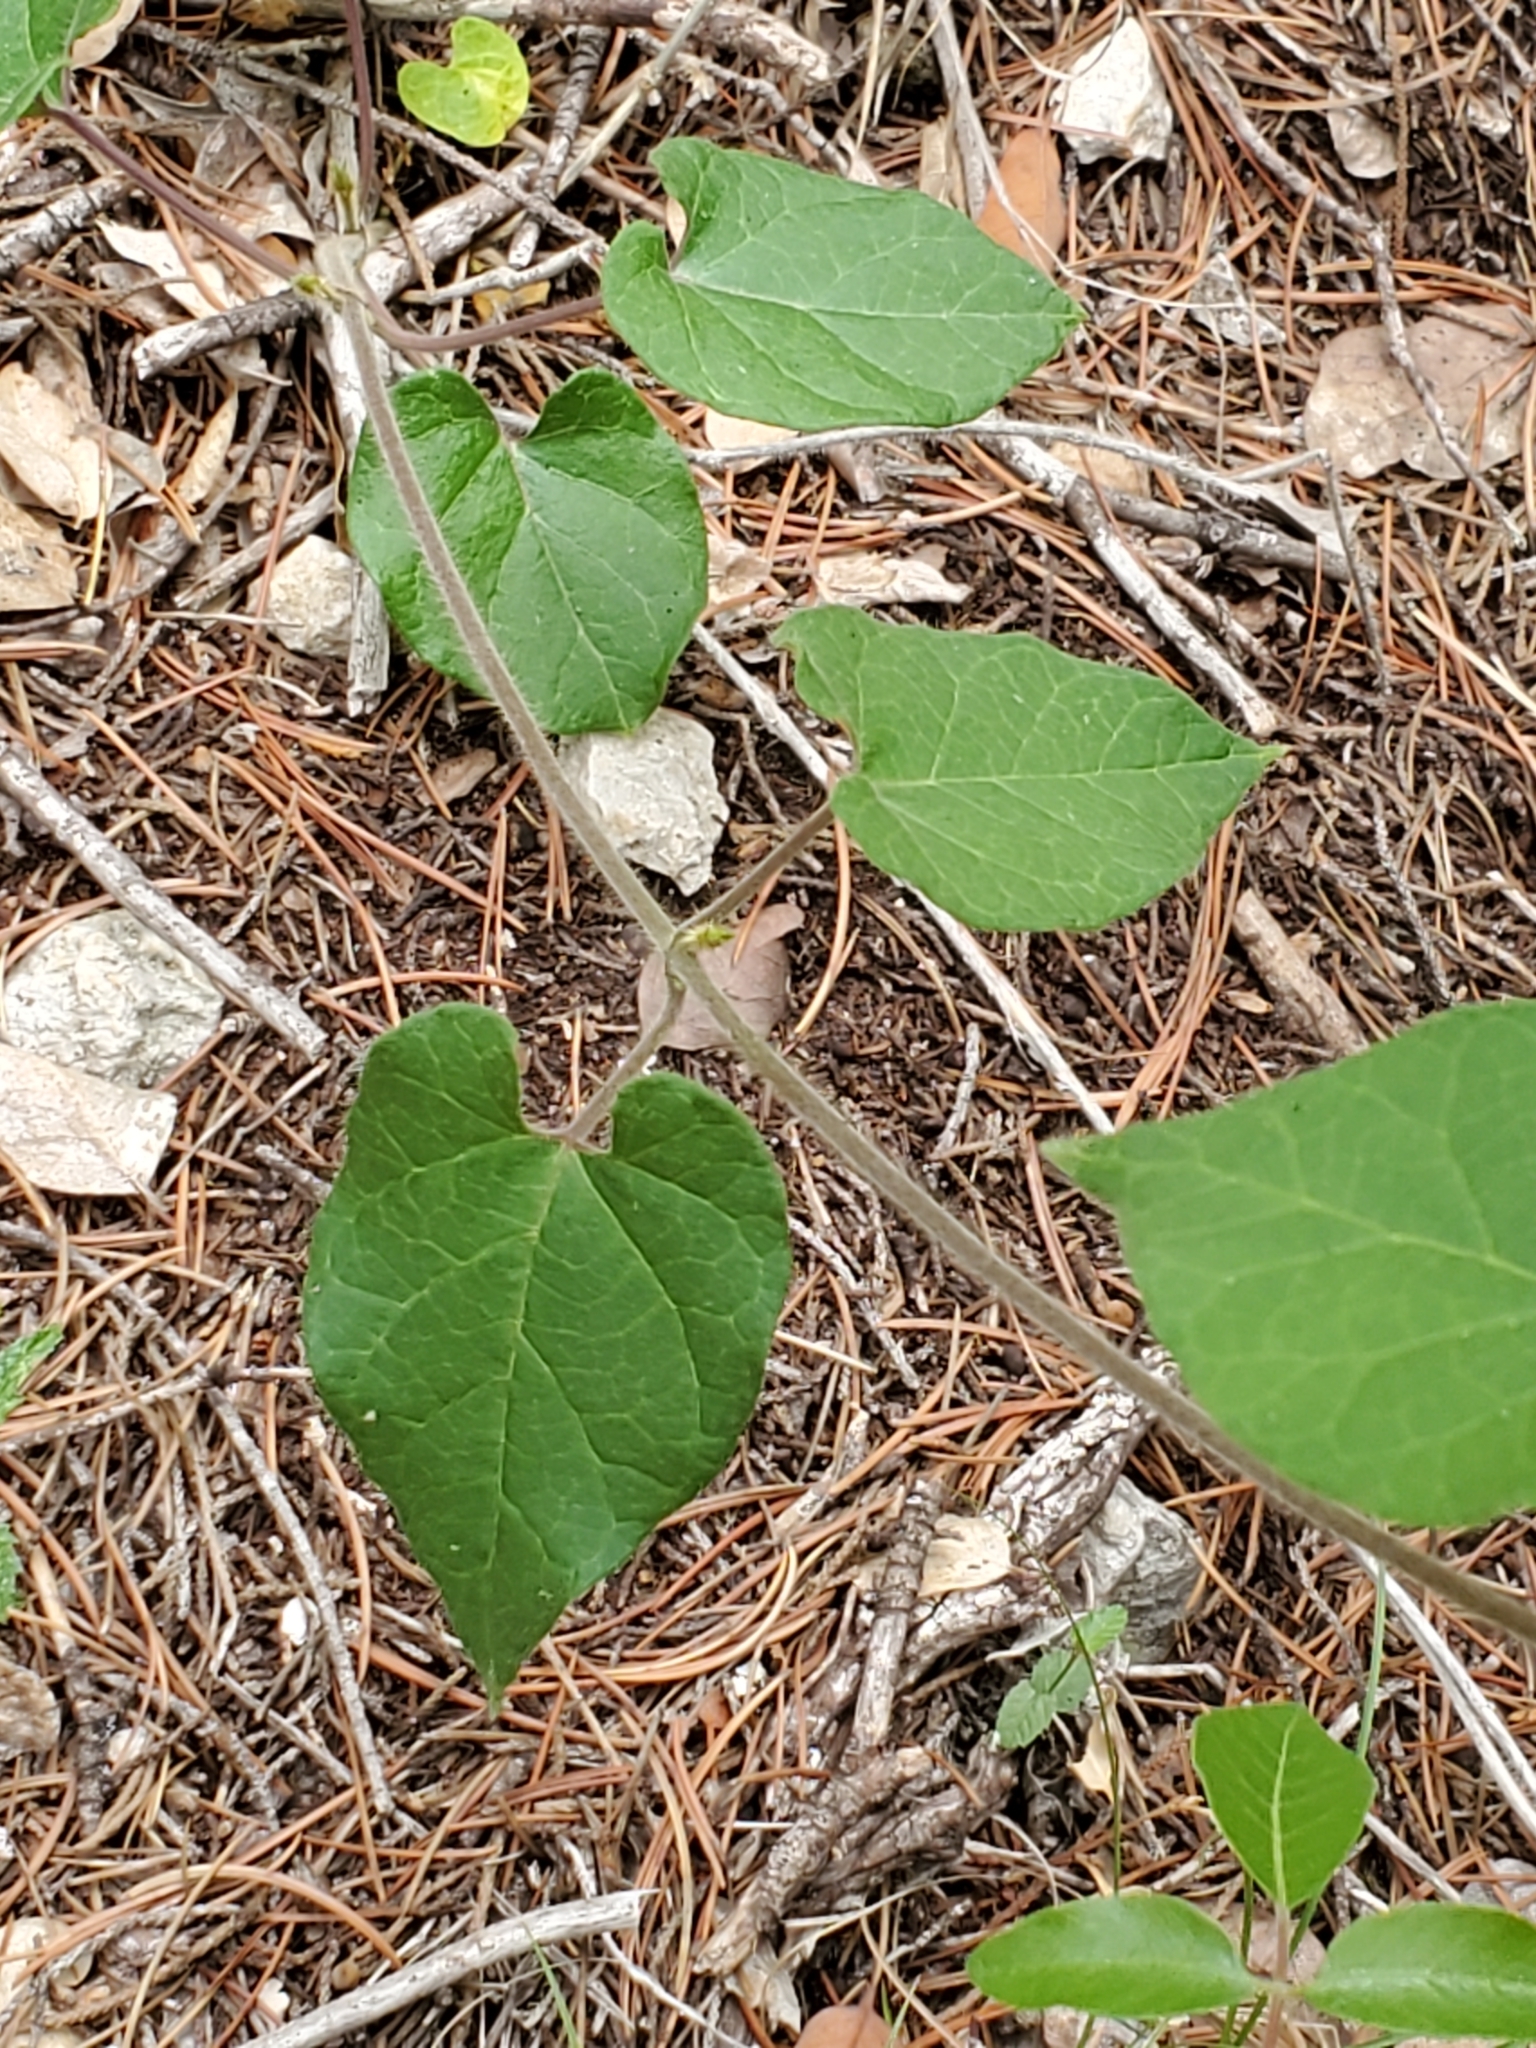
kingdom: Plantae
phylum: Tracheophyta
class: Magnoliopsida
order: Gentianales
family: Apocynaceae
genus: Dictyanthus
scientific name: Dictyanthus reticulatus
